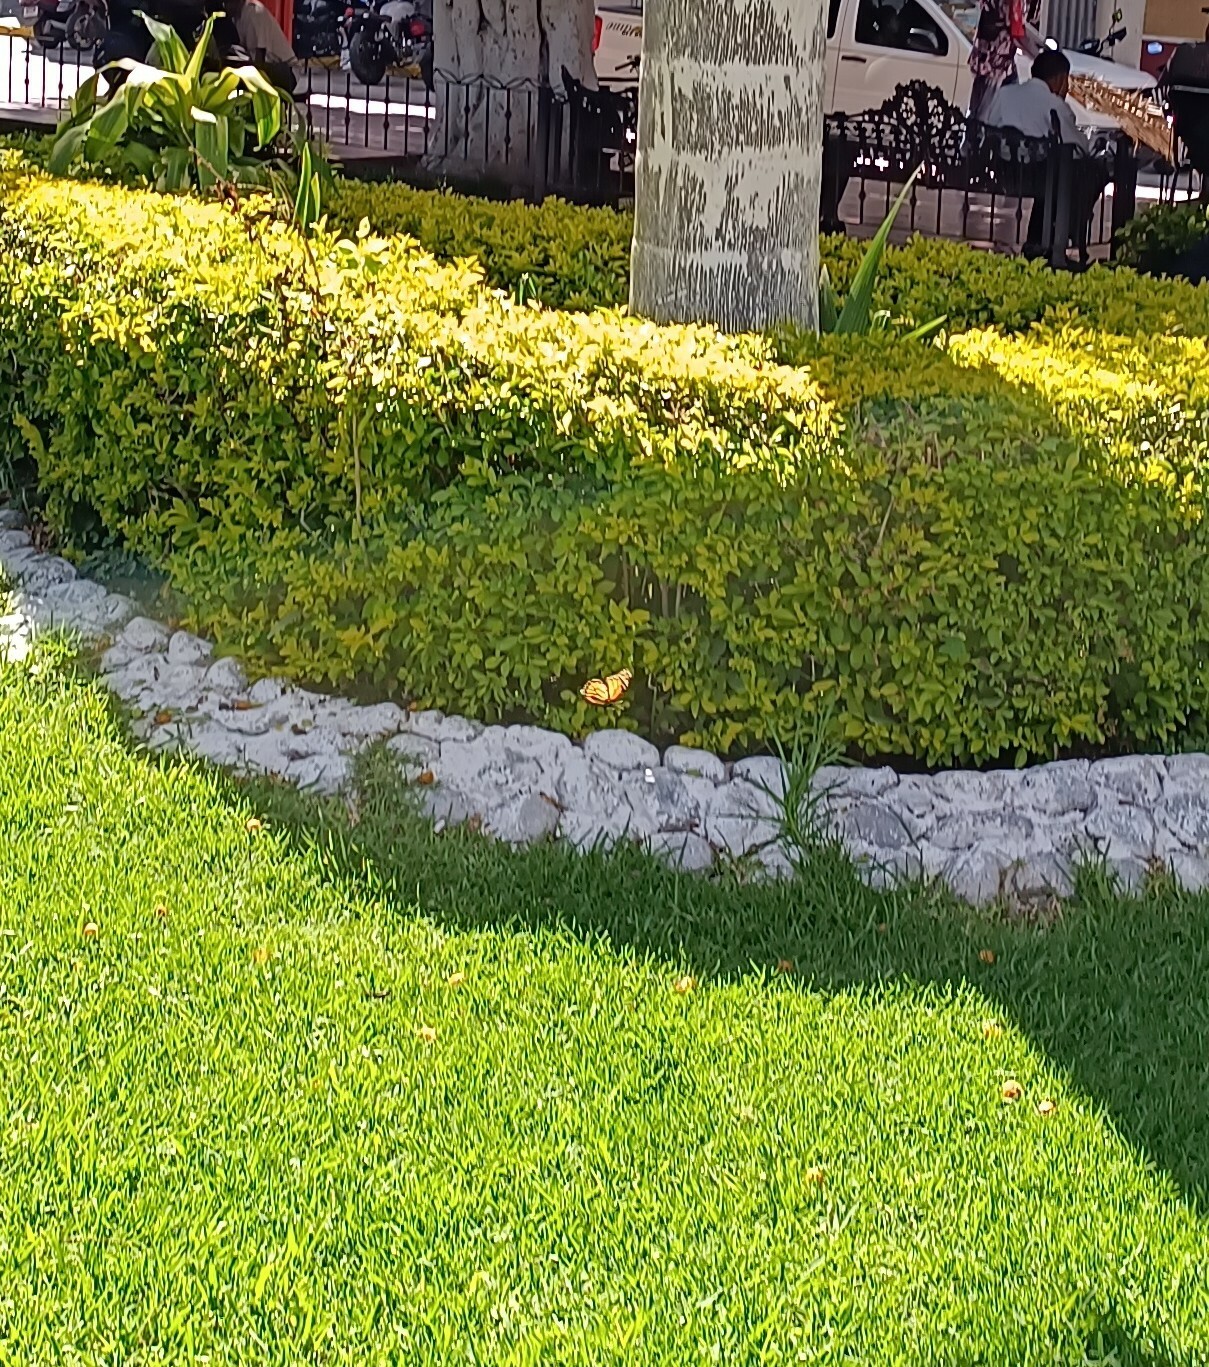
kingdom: Animalia
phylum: Arthropoda
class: Insecta
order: Lepidoptera
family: Nymphalidae
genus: Danaus
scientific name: Danaus plexippus
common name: Monarch
